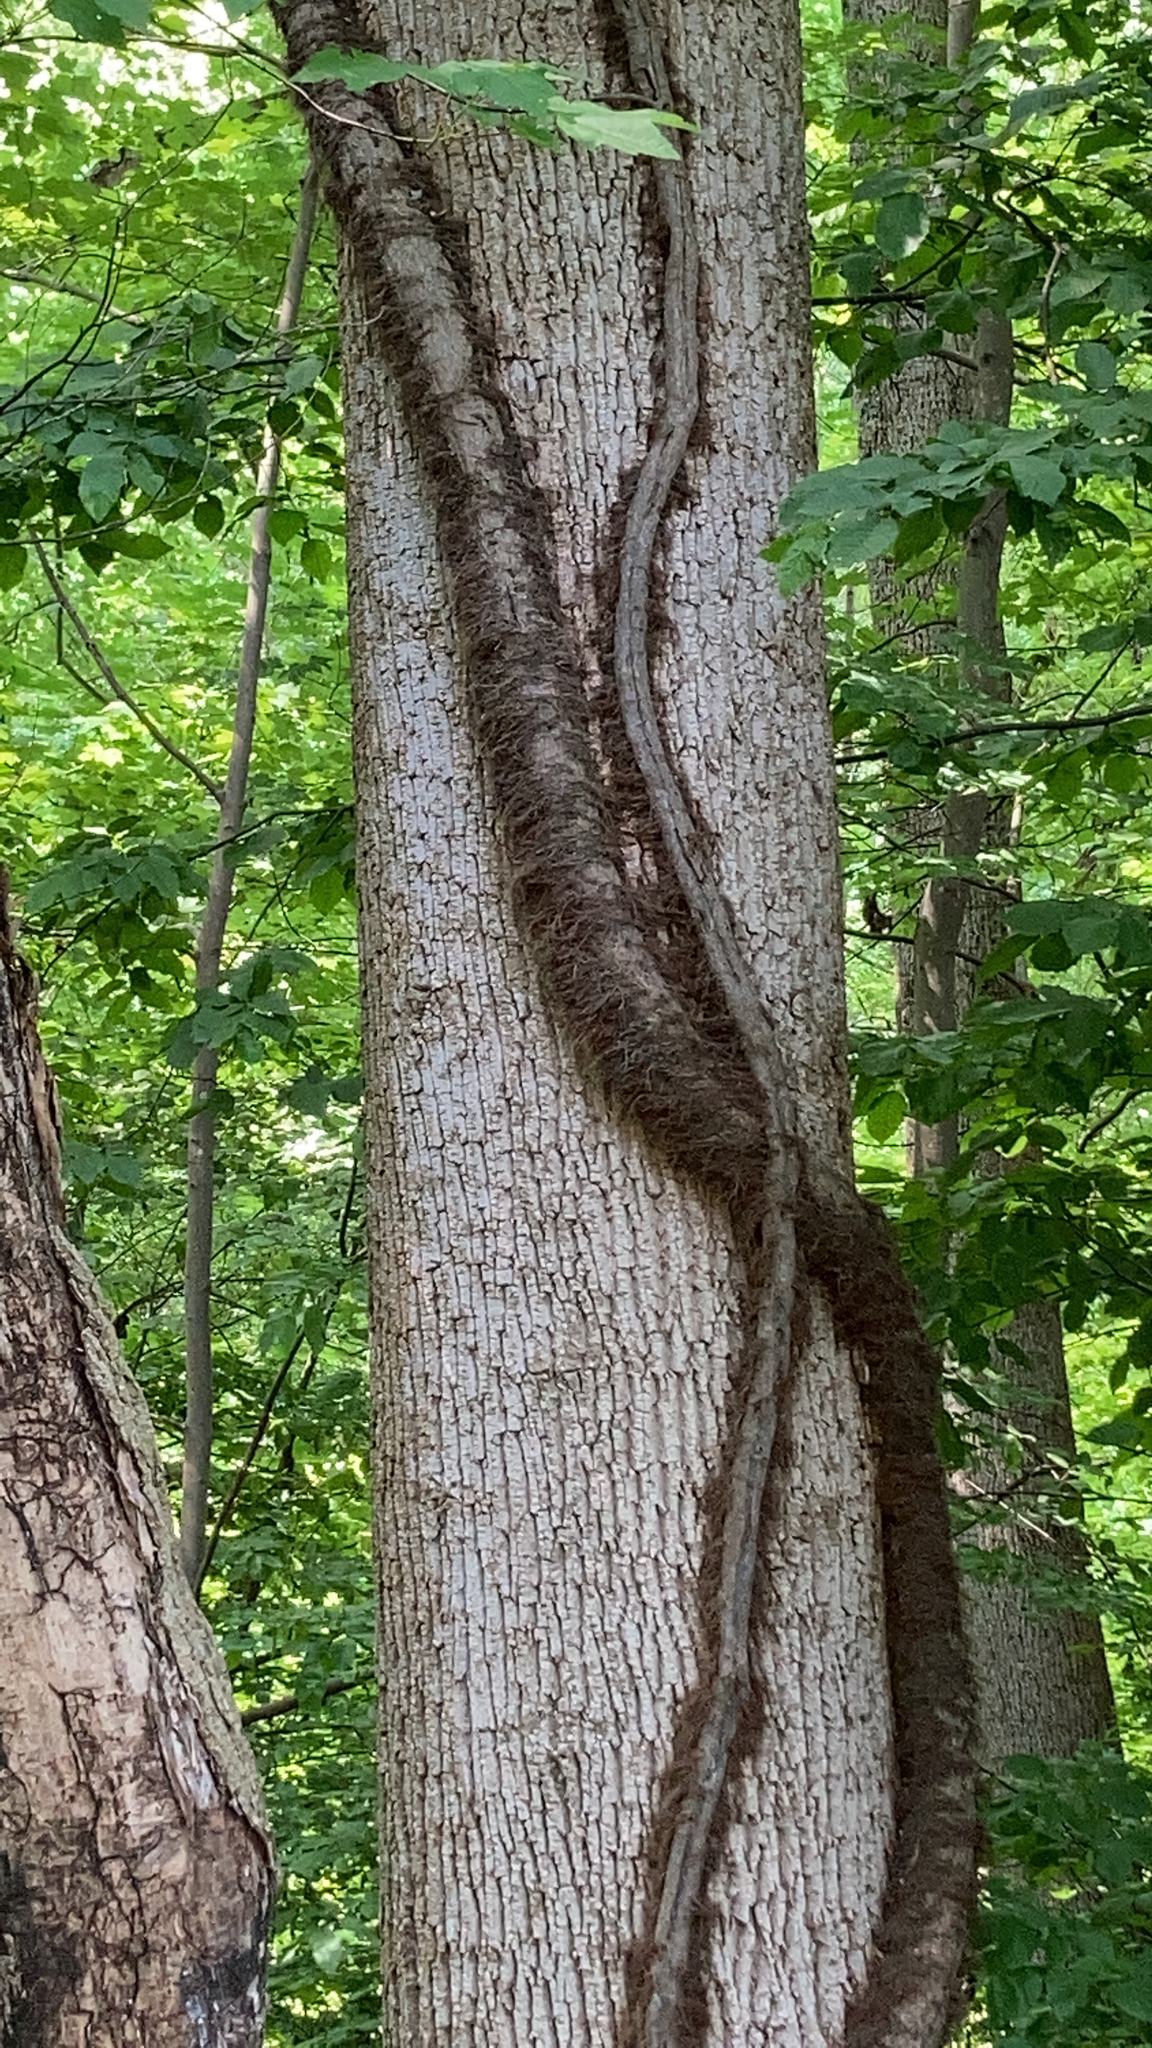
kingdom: Plantae
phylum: Tracheophyta
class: Magnoliopsida
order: Sapindales
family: Anacardiaceae
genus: Toxicodendron
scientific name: Toxicodendron radicans
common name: Poison ivy
